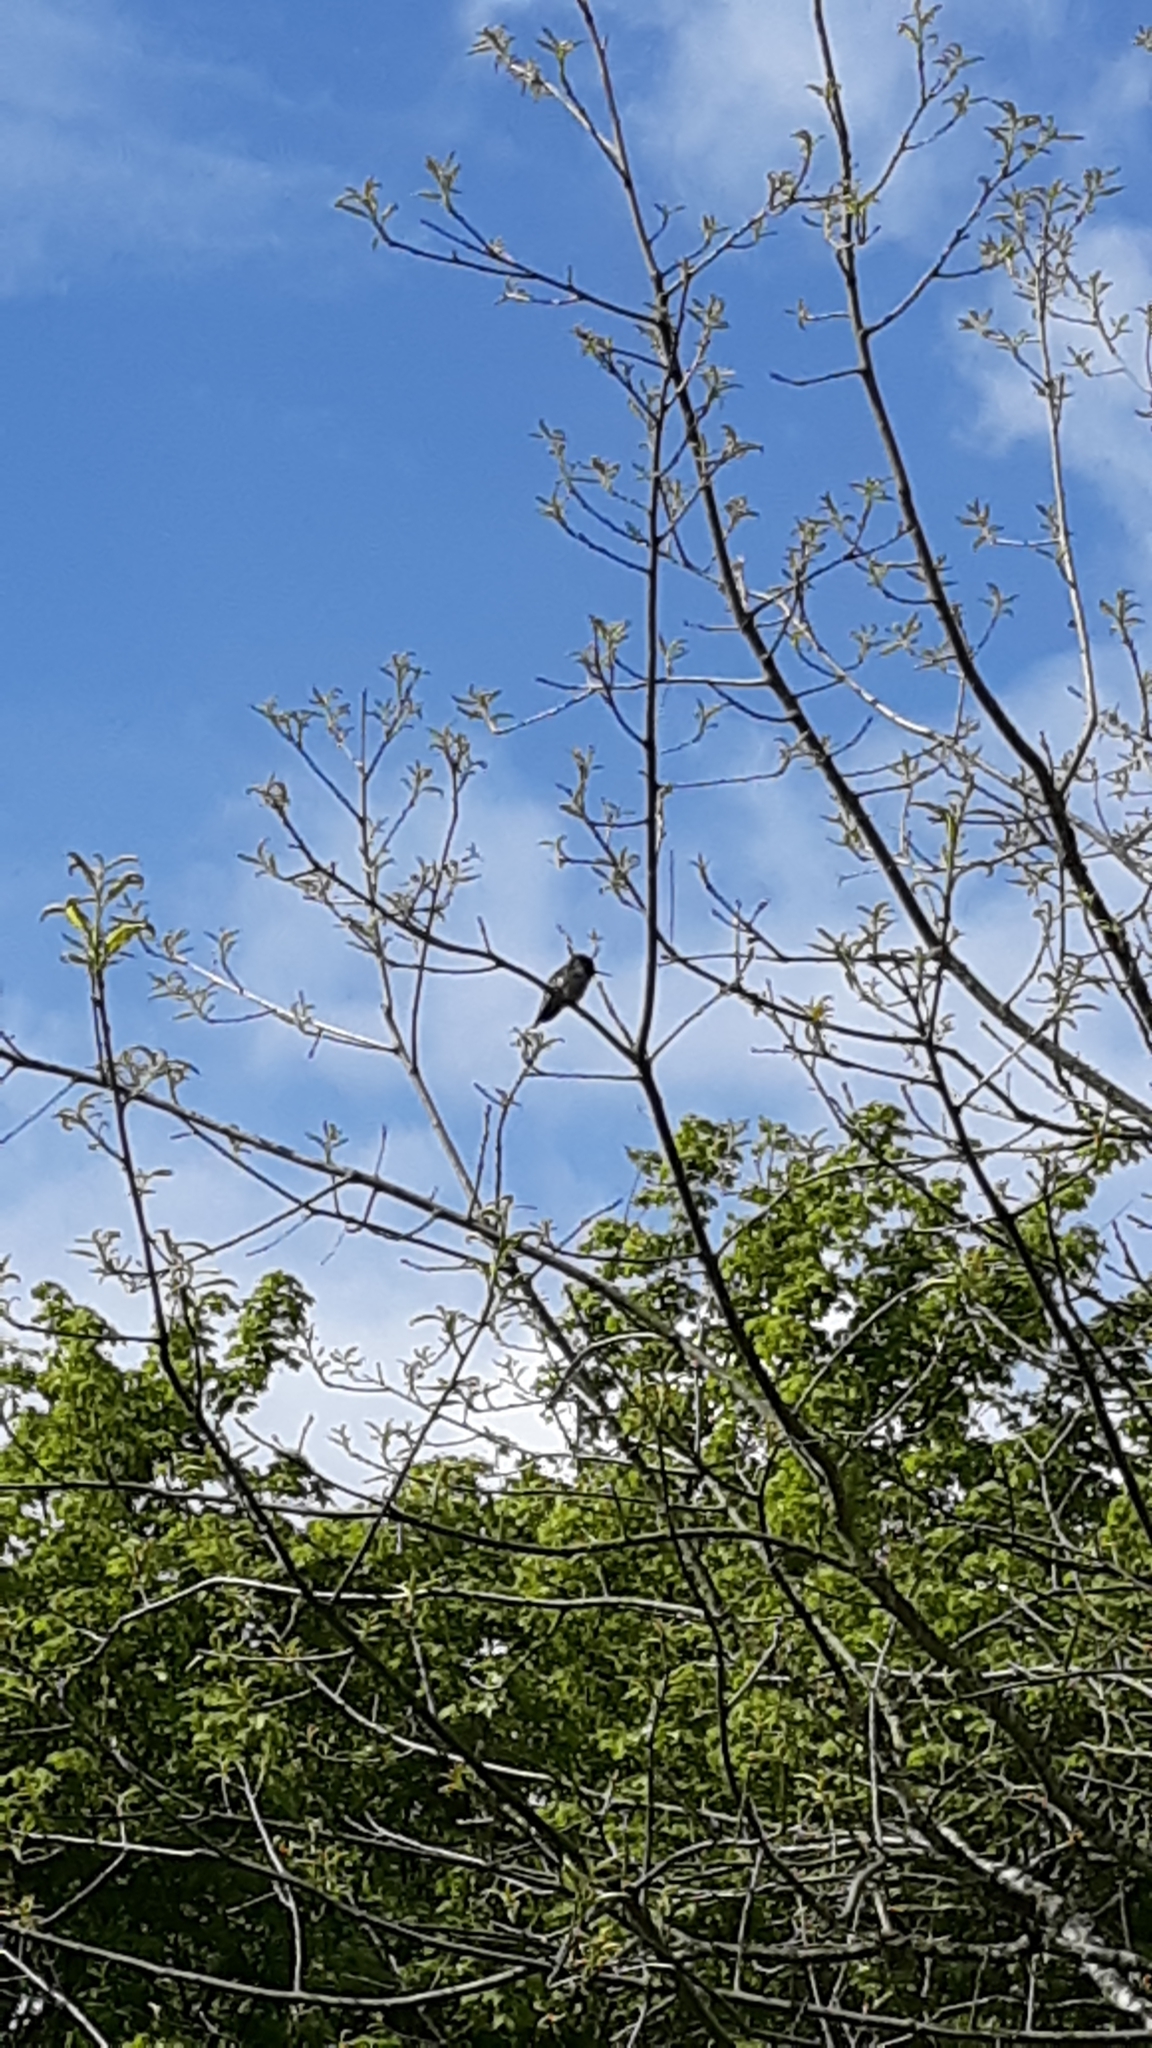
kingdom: Animalia
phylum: Chordata
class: Aves
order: Apodiformes
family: Trochilidae
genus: Calypte
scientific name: Calypte anna
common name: Anna's hummingbird
